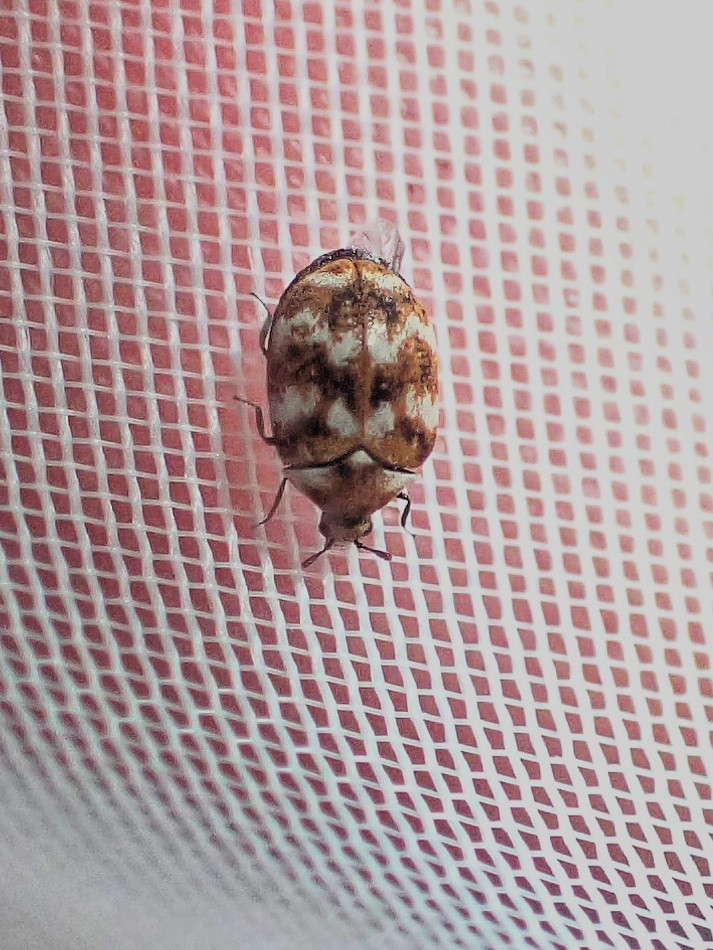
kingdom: Animalia
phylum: Arthropoda
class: Insecta
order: Coleoptera
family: Dermestidae
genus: Anthrenus
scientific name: Anthrenus verbasci
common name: Varied carpet beetle
